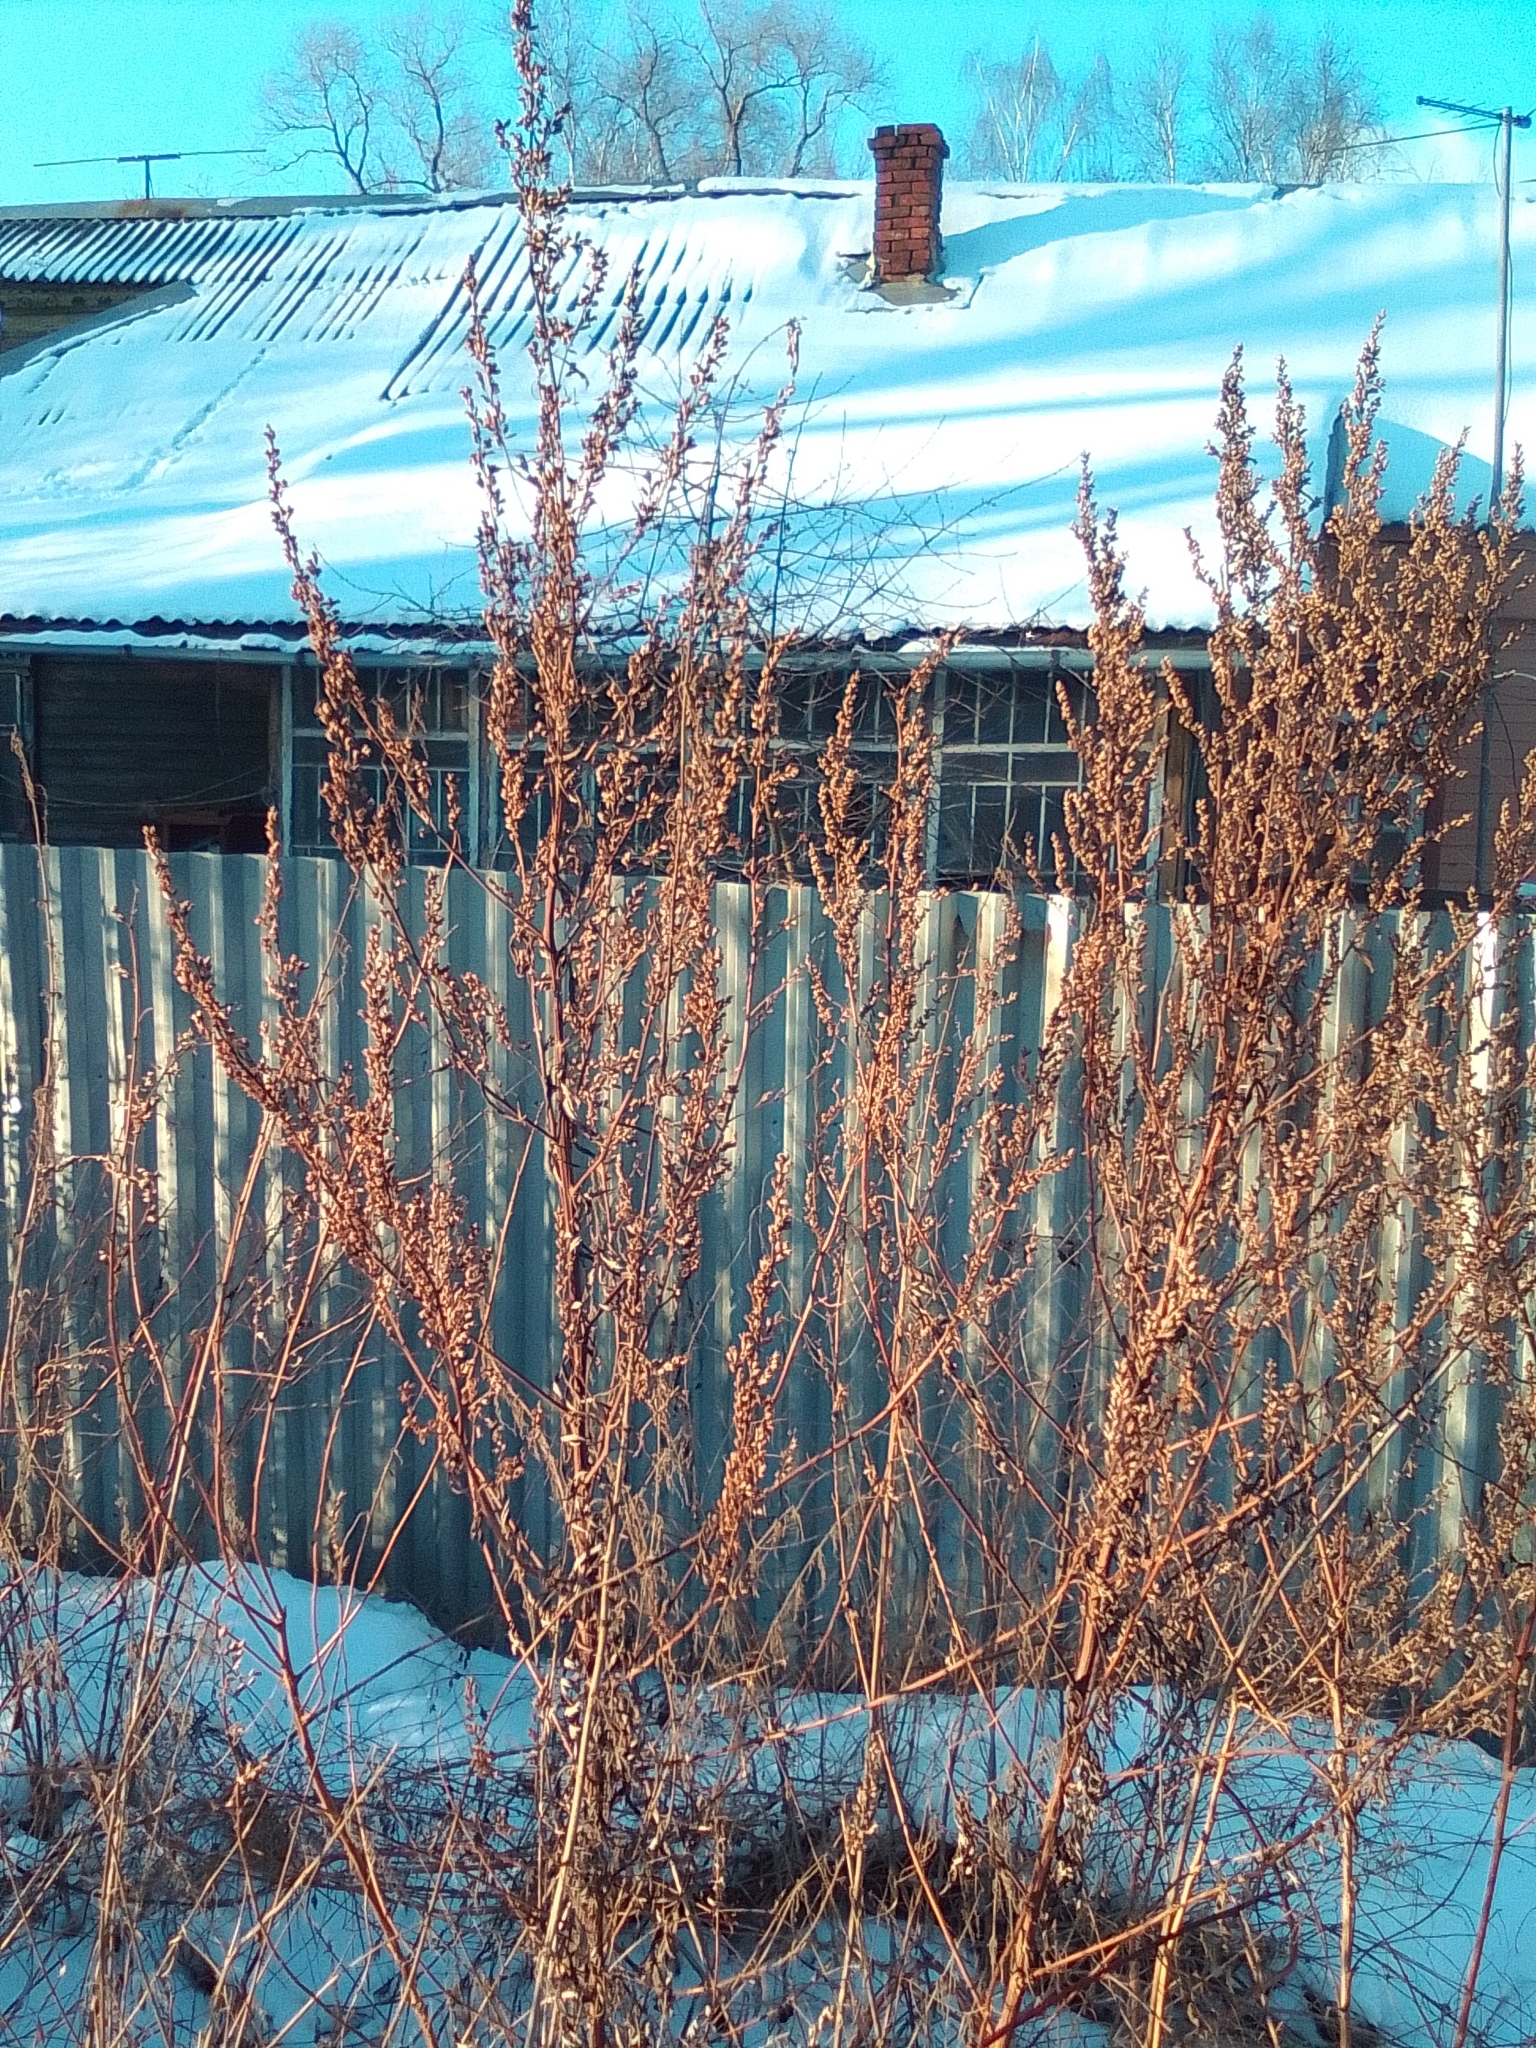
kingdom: Plantae
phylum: Tracheophyta
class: Magnoliopsida
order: Asterales
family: Asteraceae
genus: Artemisia
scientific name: Artemisia vulgaris
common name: Mugwort
